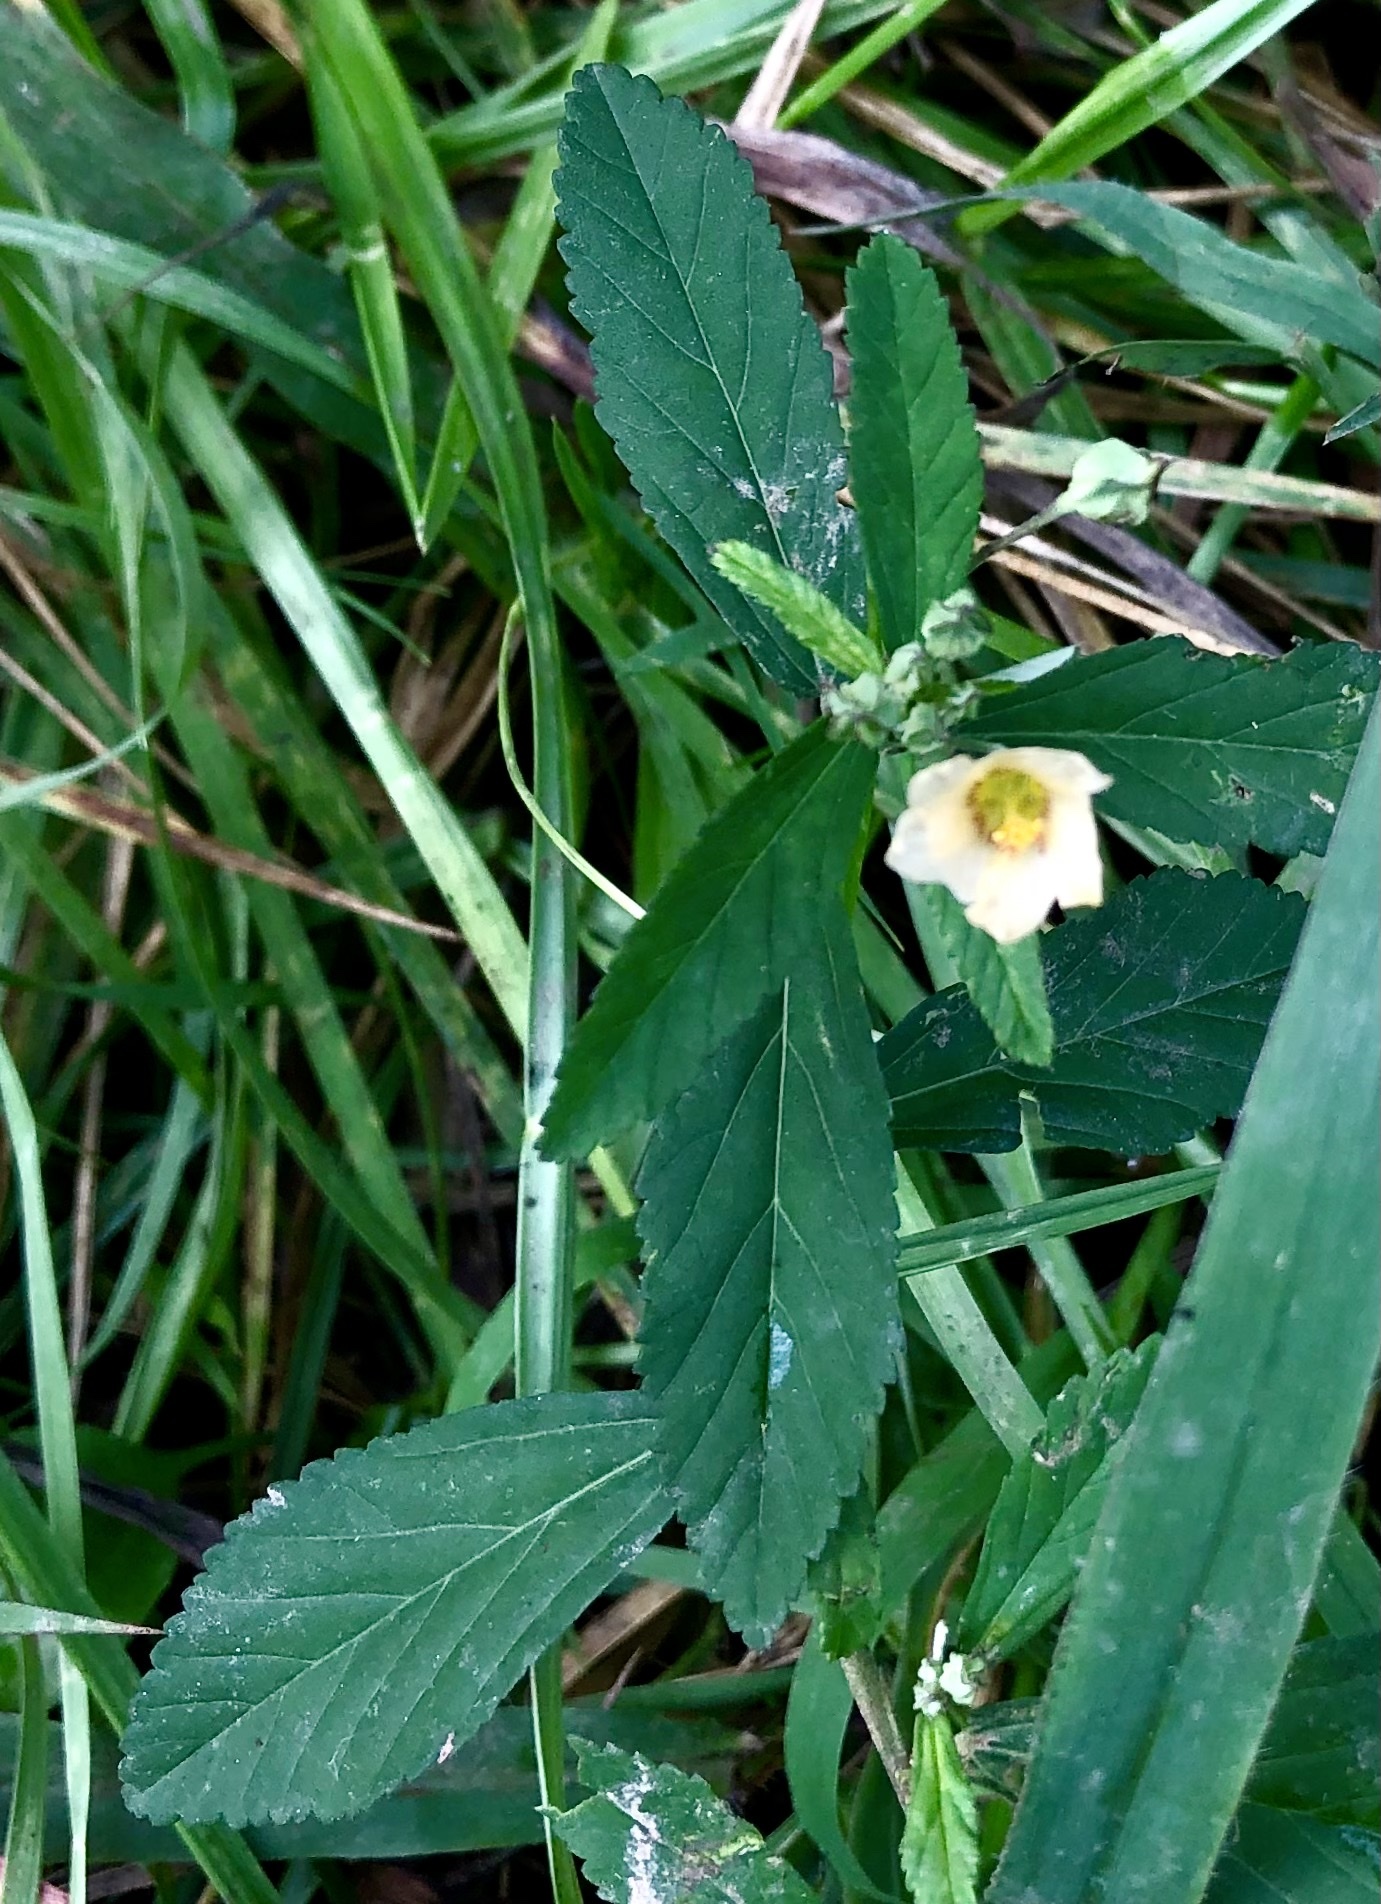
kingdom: Plantae
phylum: Tracheophyta
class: Magnoliopsida
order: Malvales
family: Malvaceae
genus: Sida
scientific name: Sida rhombifolia
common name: Queensland-hemp
